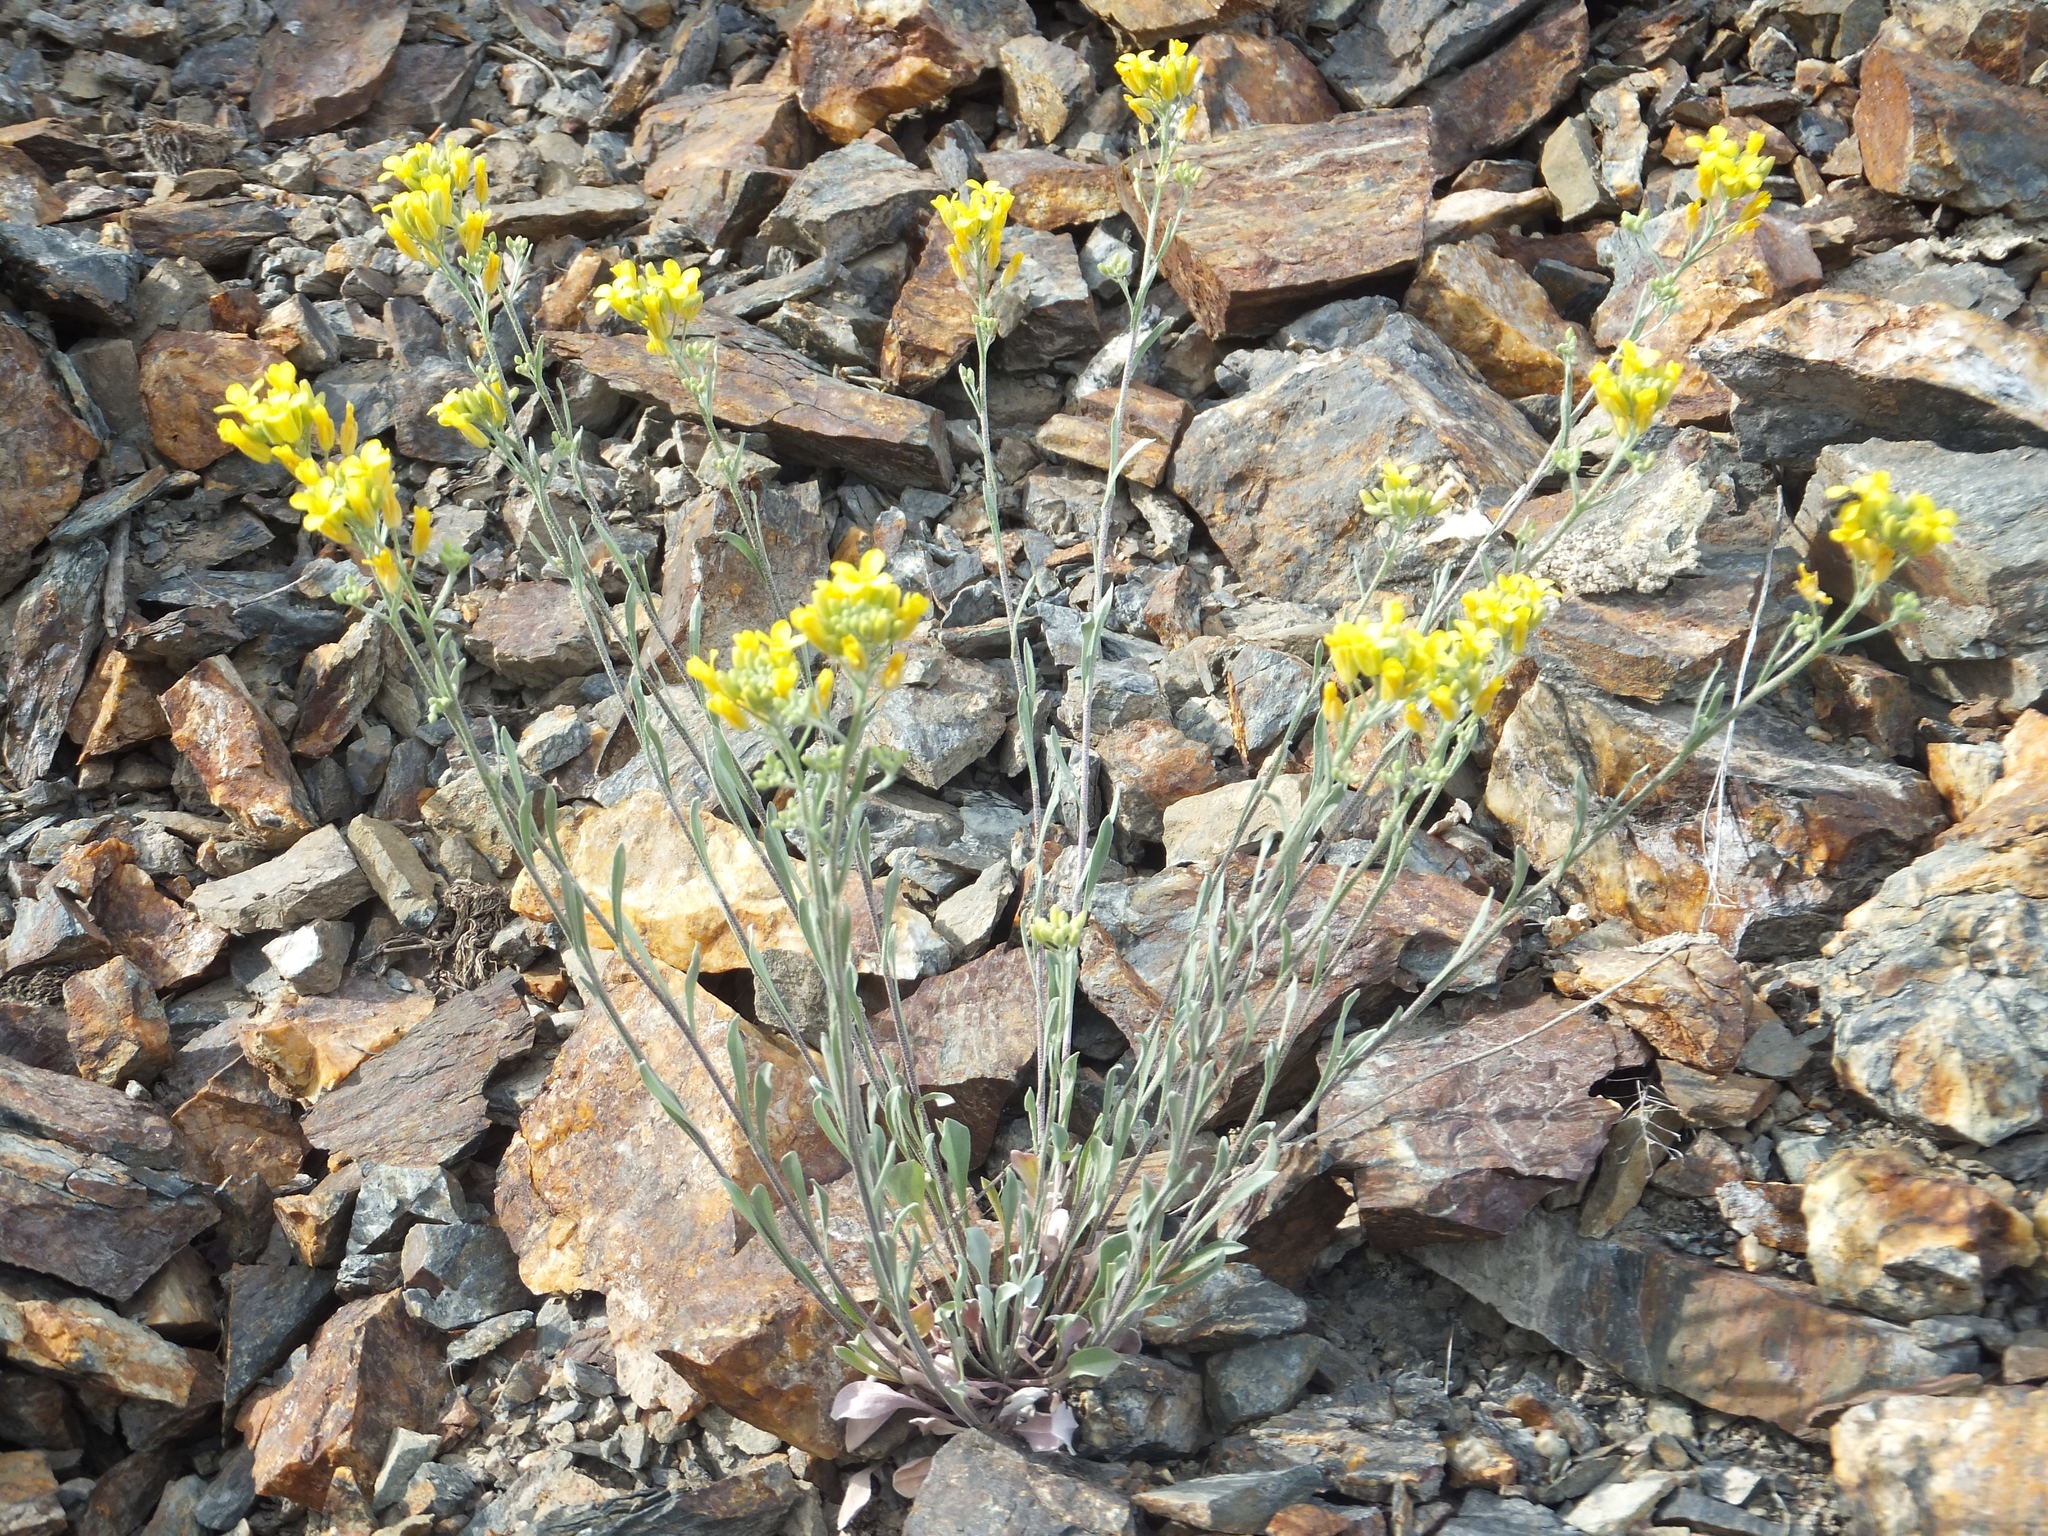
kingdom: Plantae
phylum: Tracheophyta
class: Magnoliopsida
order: Brassicales
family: Brassicaceae
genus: Physaria
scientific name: Physaria douglasii
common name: Douglas's bladderpod
